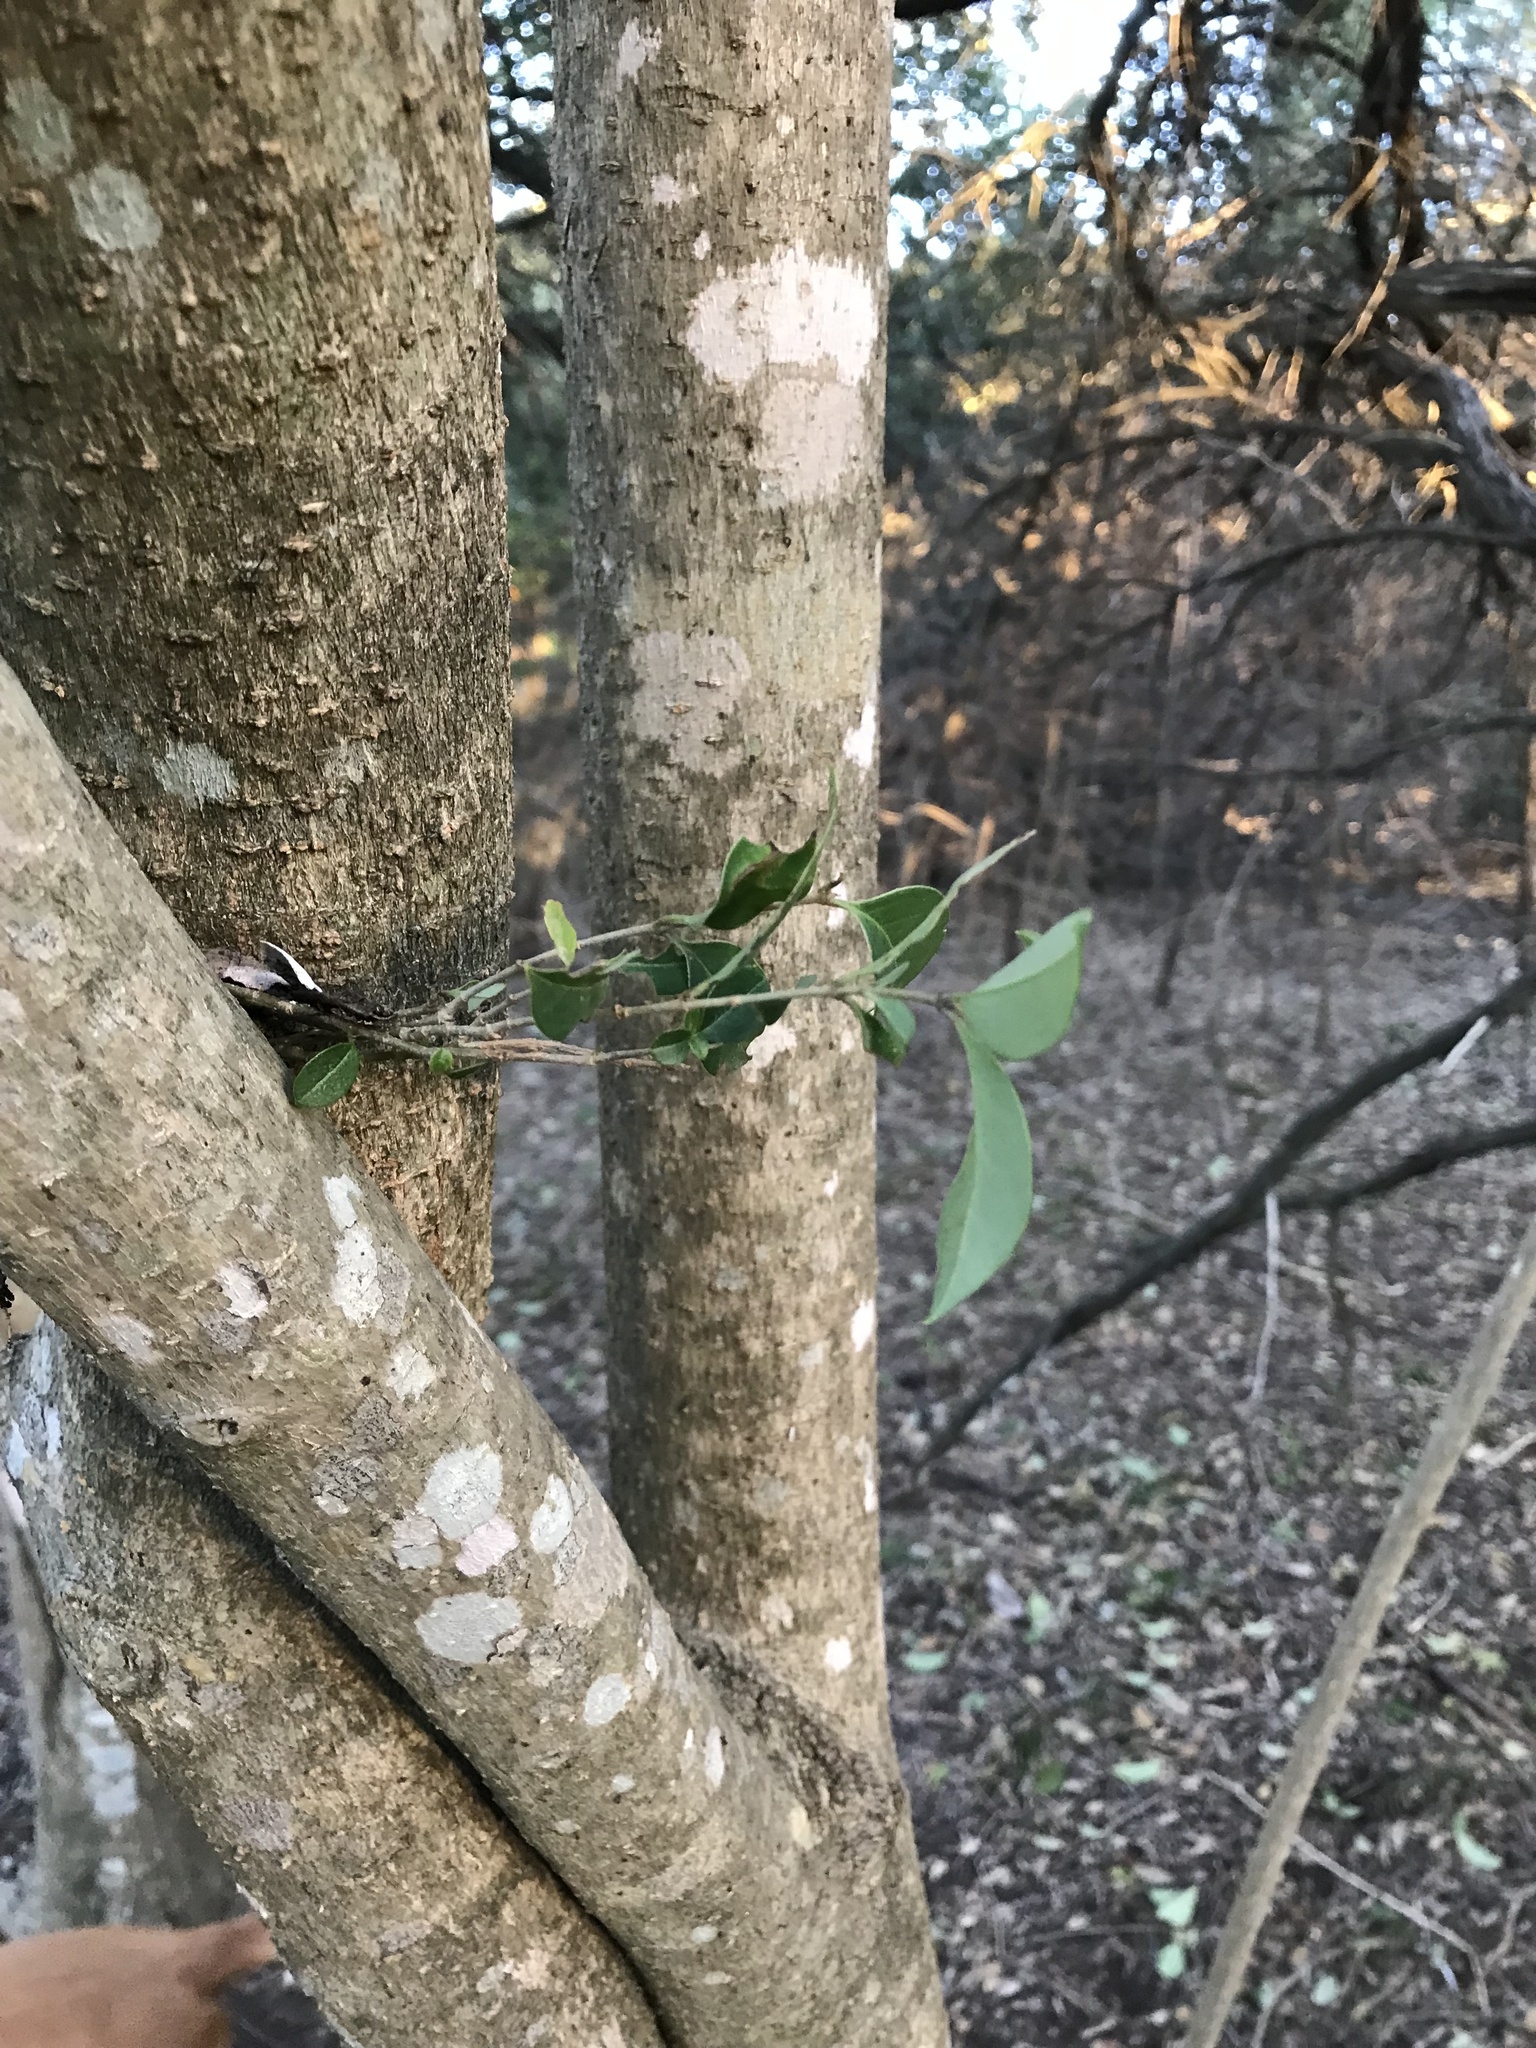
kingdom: Plantae
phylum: Tracheophyta
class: Magnoliopsida
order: Lamiales
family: Oleaceae
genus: Ligustrum
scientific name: Ligustrum lucidum
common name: Glossy privet
